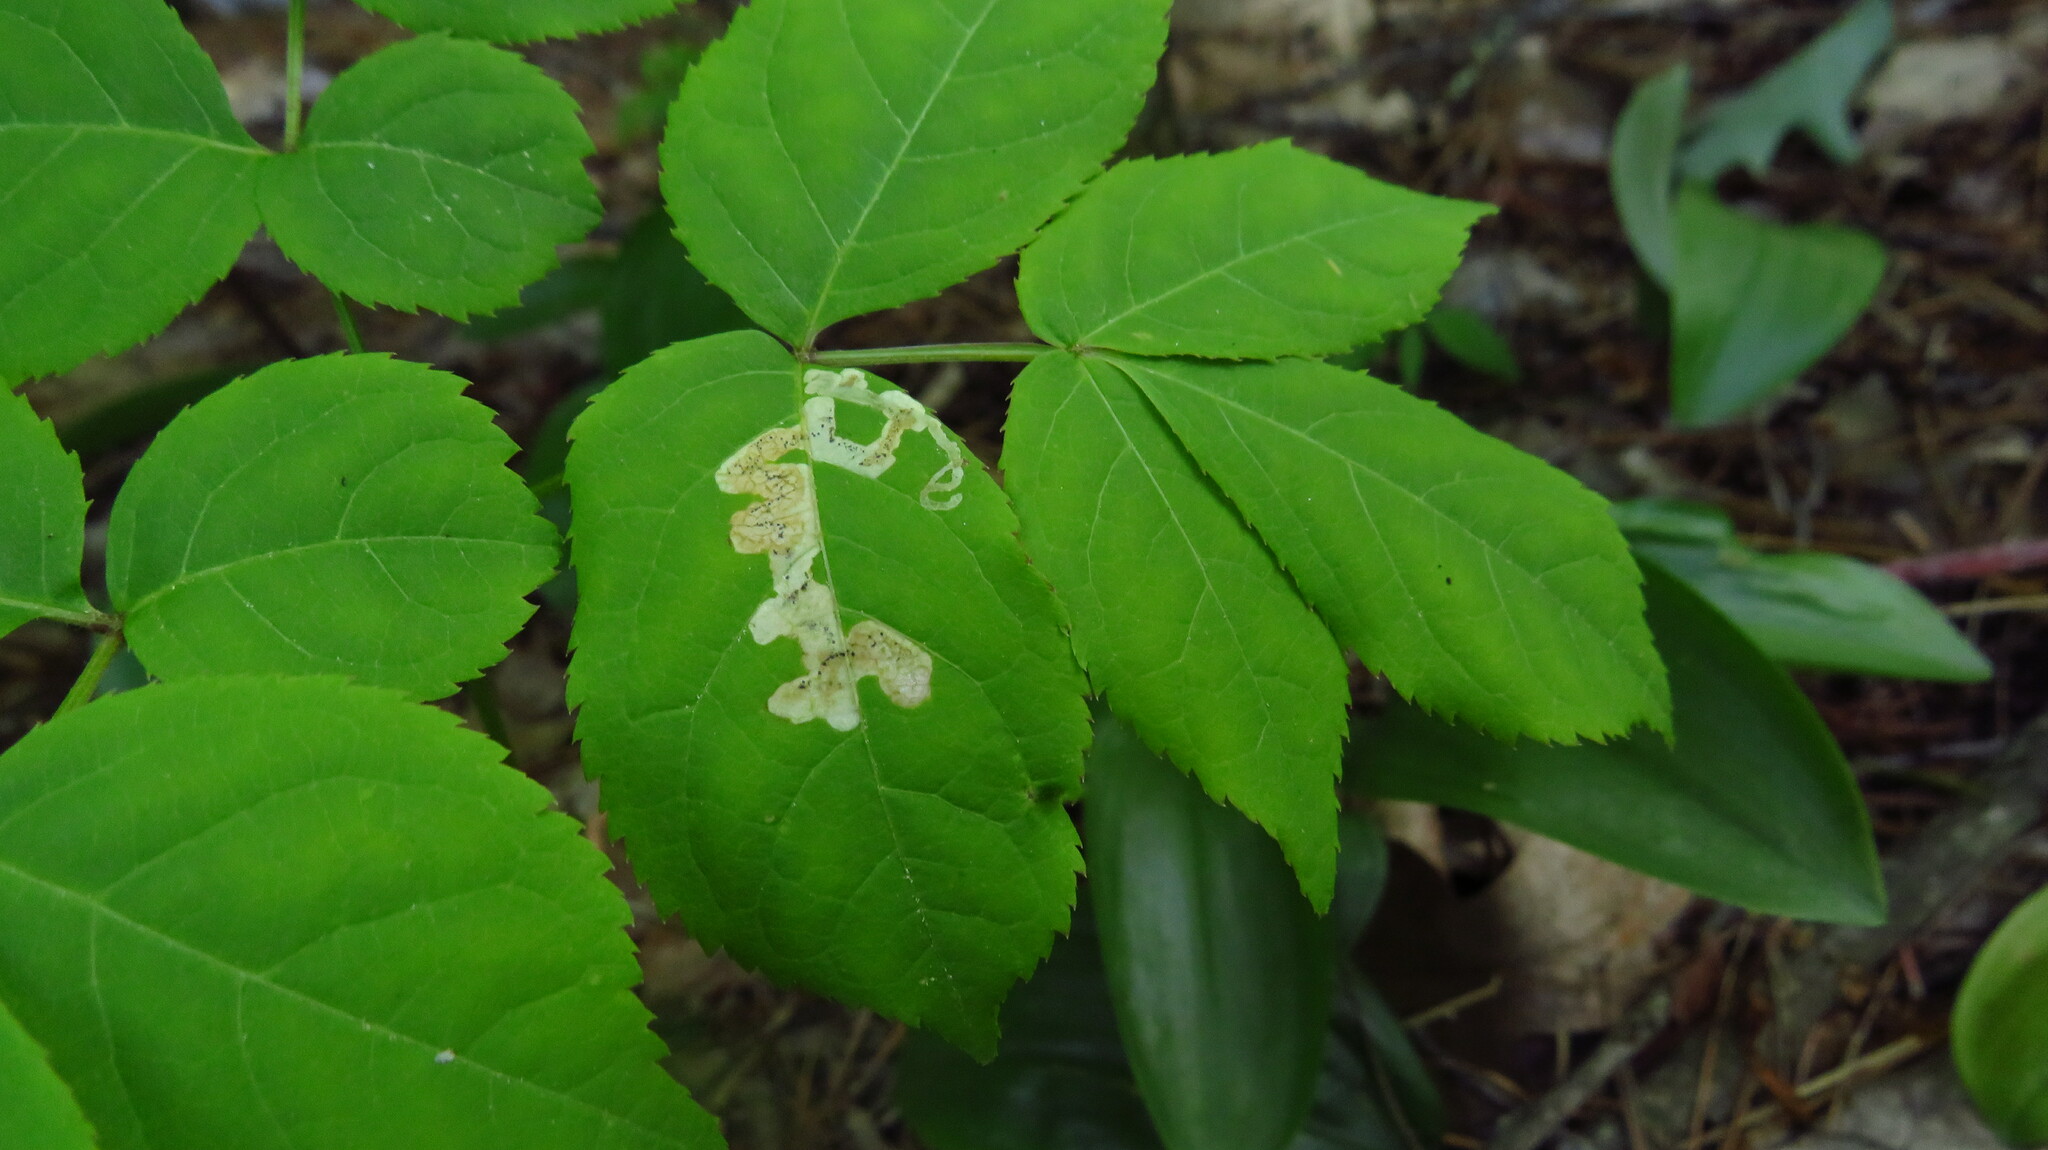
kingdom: Animalia
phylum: Arthropoda
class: Insecta
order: Diptera
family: Agromyzidae
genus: Phytomyza
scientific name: Phytomyza aralivora
